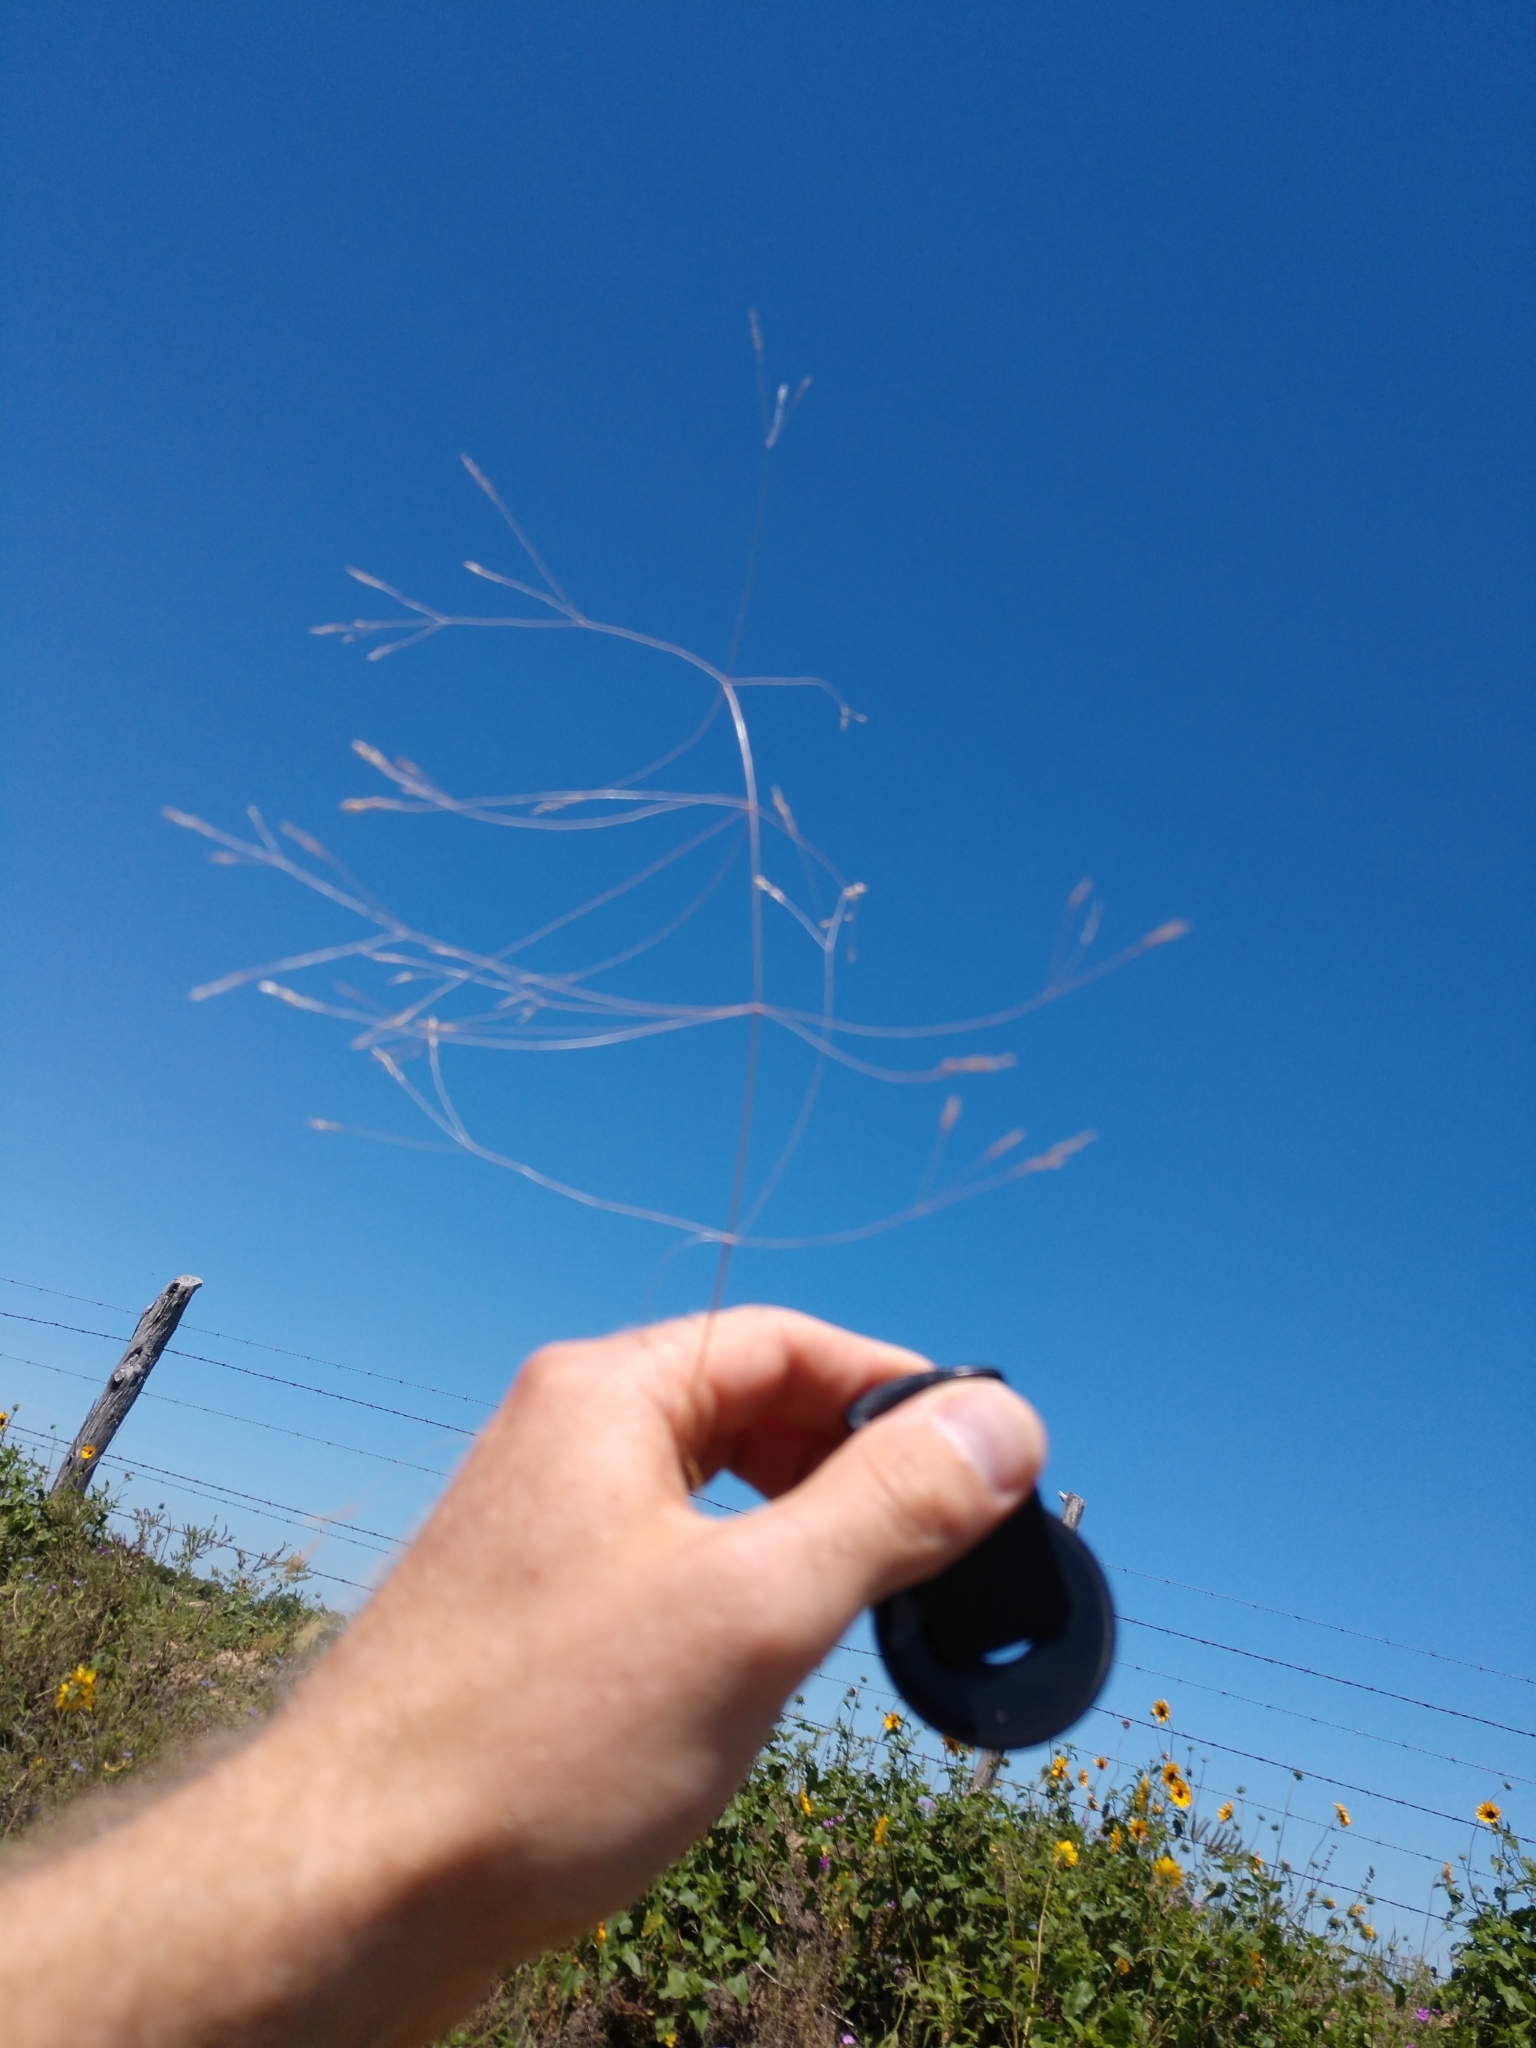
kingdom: Plantae
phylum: Tracheophyta
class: Liliopsida
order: Poales
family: Poaceae
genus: Agrostis
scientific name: Agrostis hyemalis
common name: Small bent
